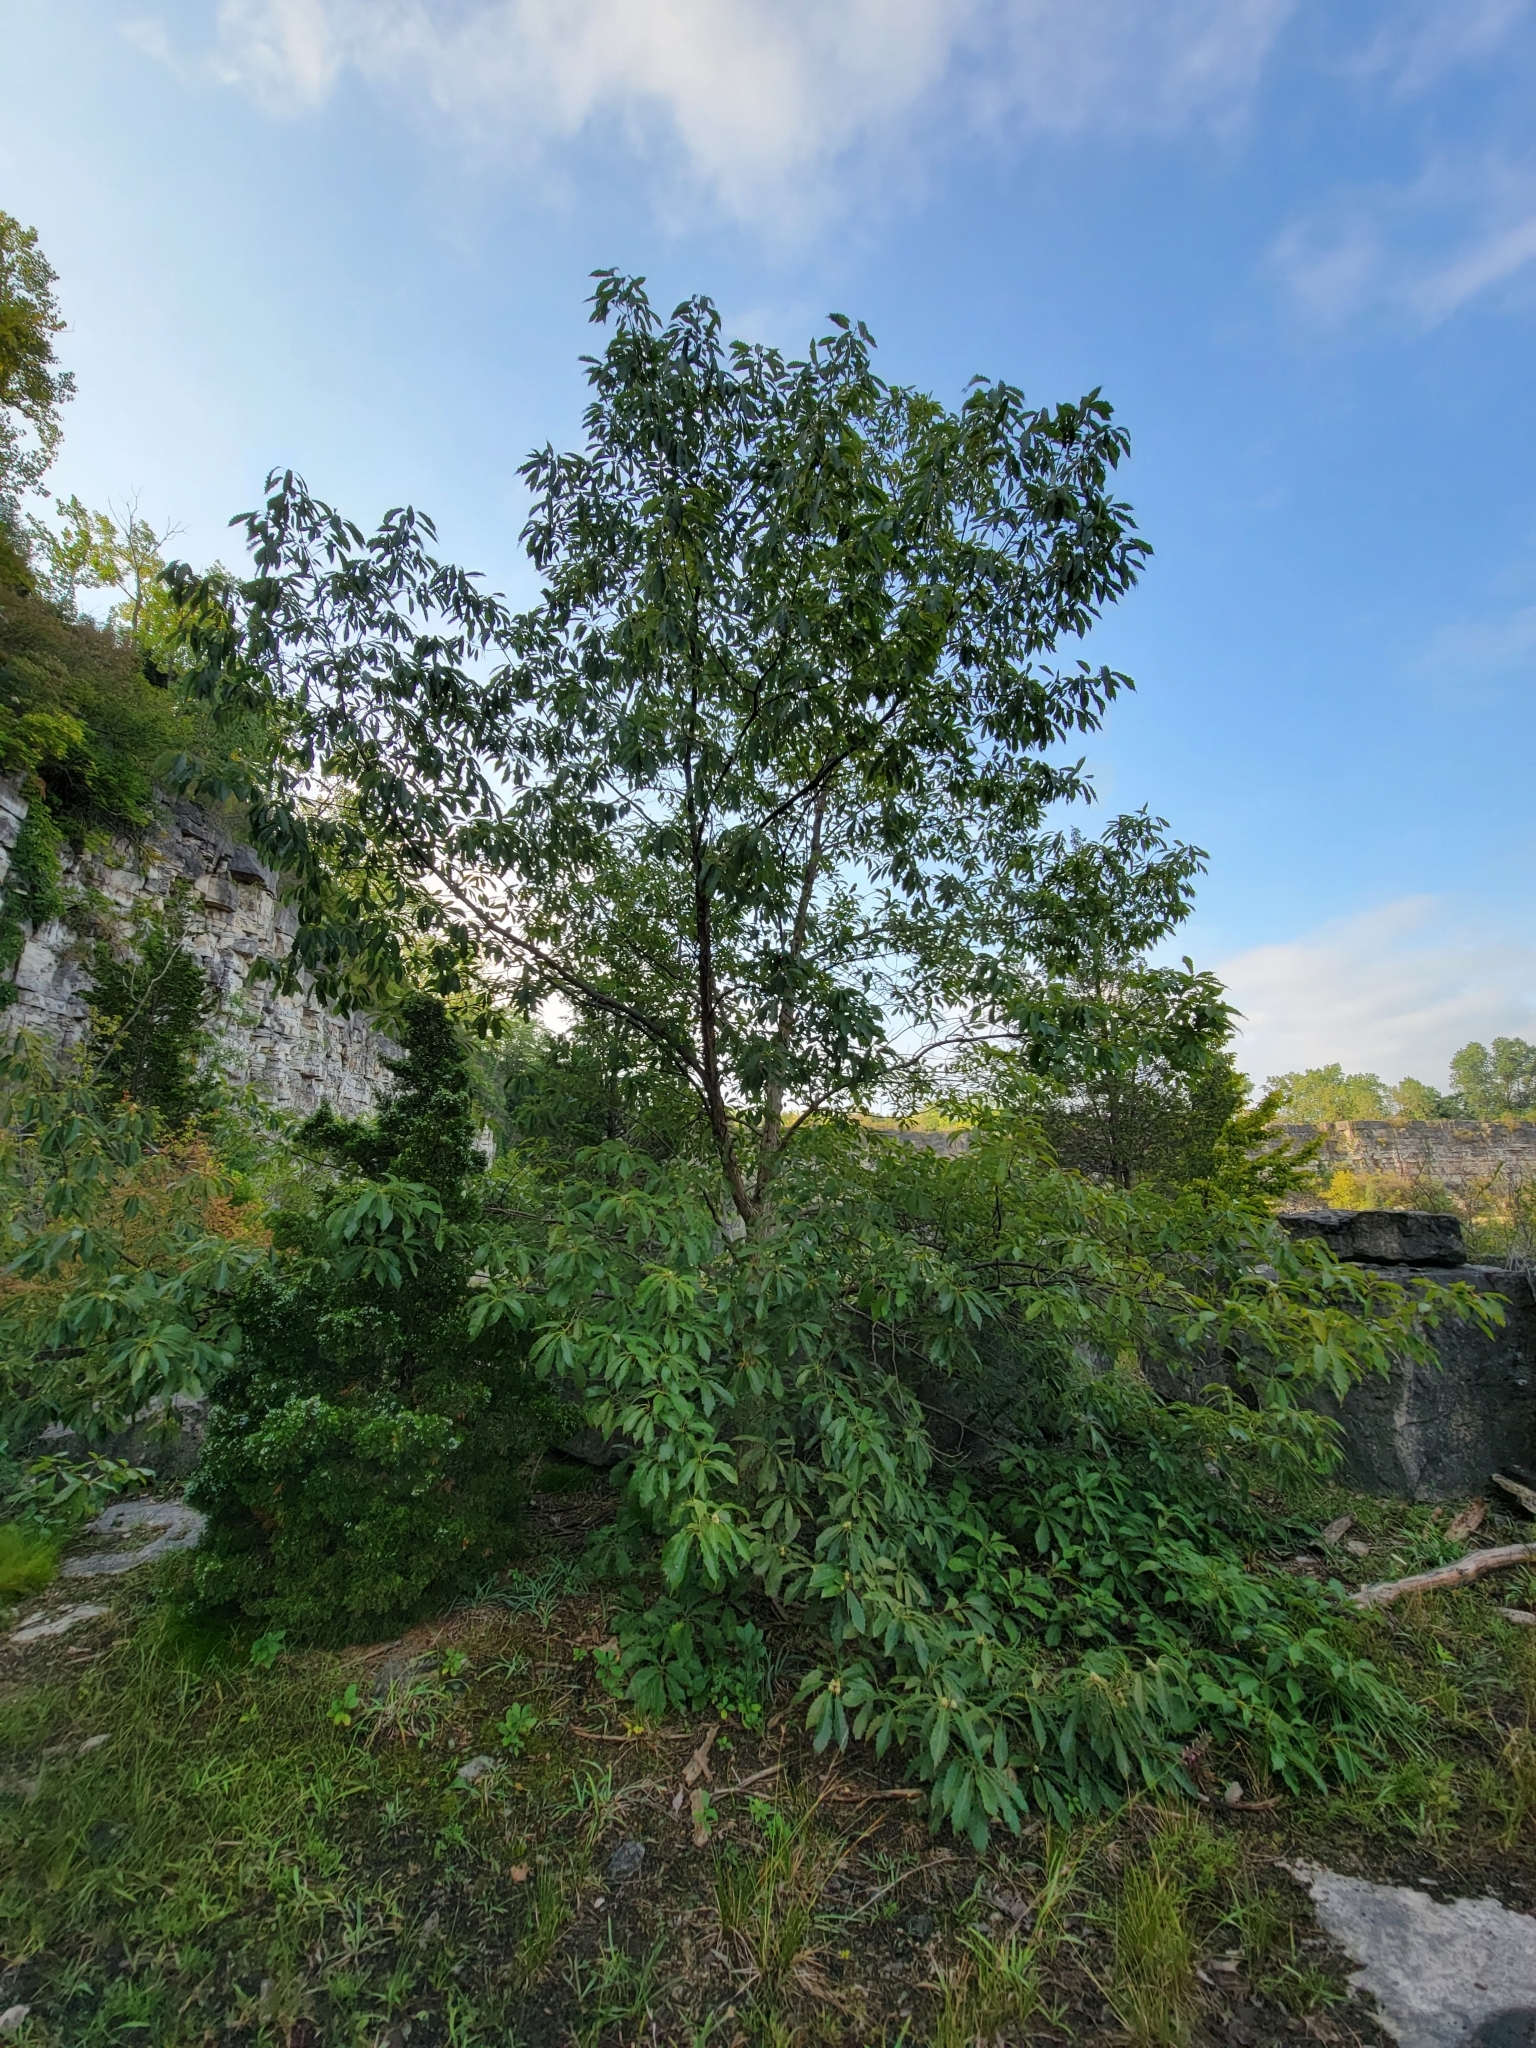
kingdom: Plantae
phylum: Tracheophyta
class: Magnoliopsida
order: Fagales
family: Fagaceae
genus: Quercus
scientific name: Quercus muehlenbergii
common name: Chinkapin oak
